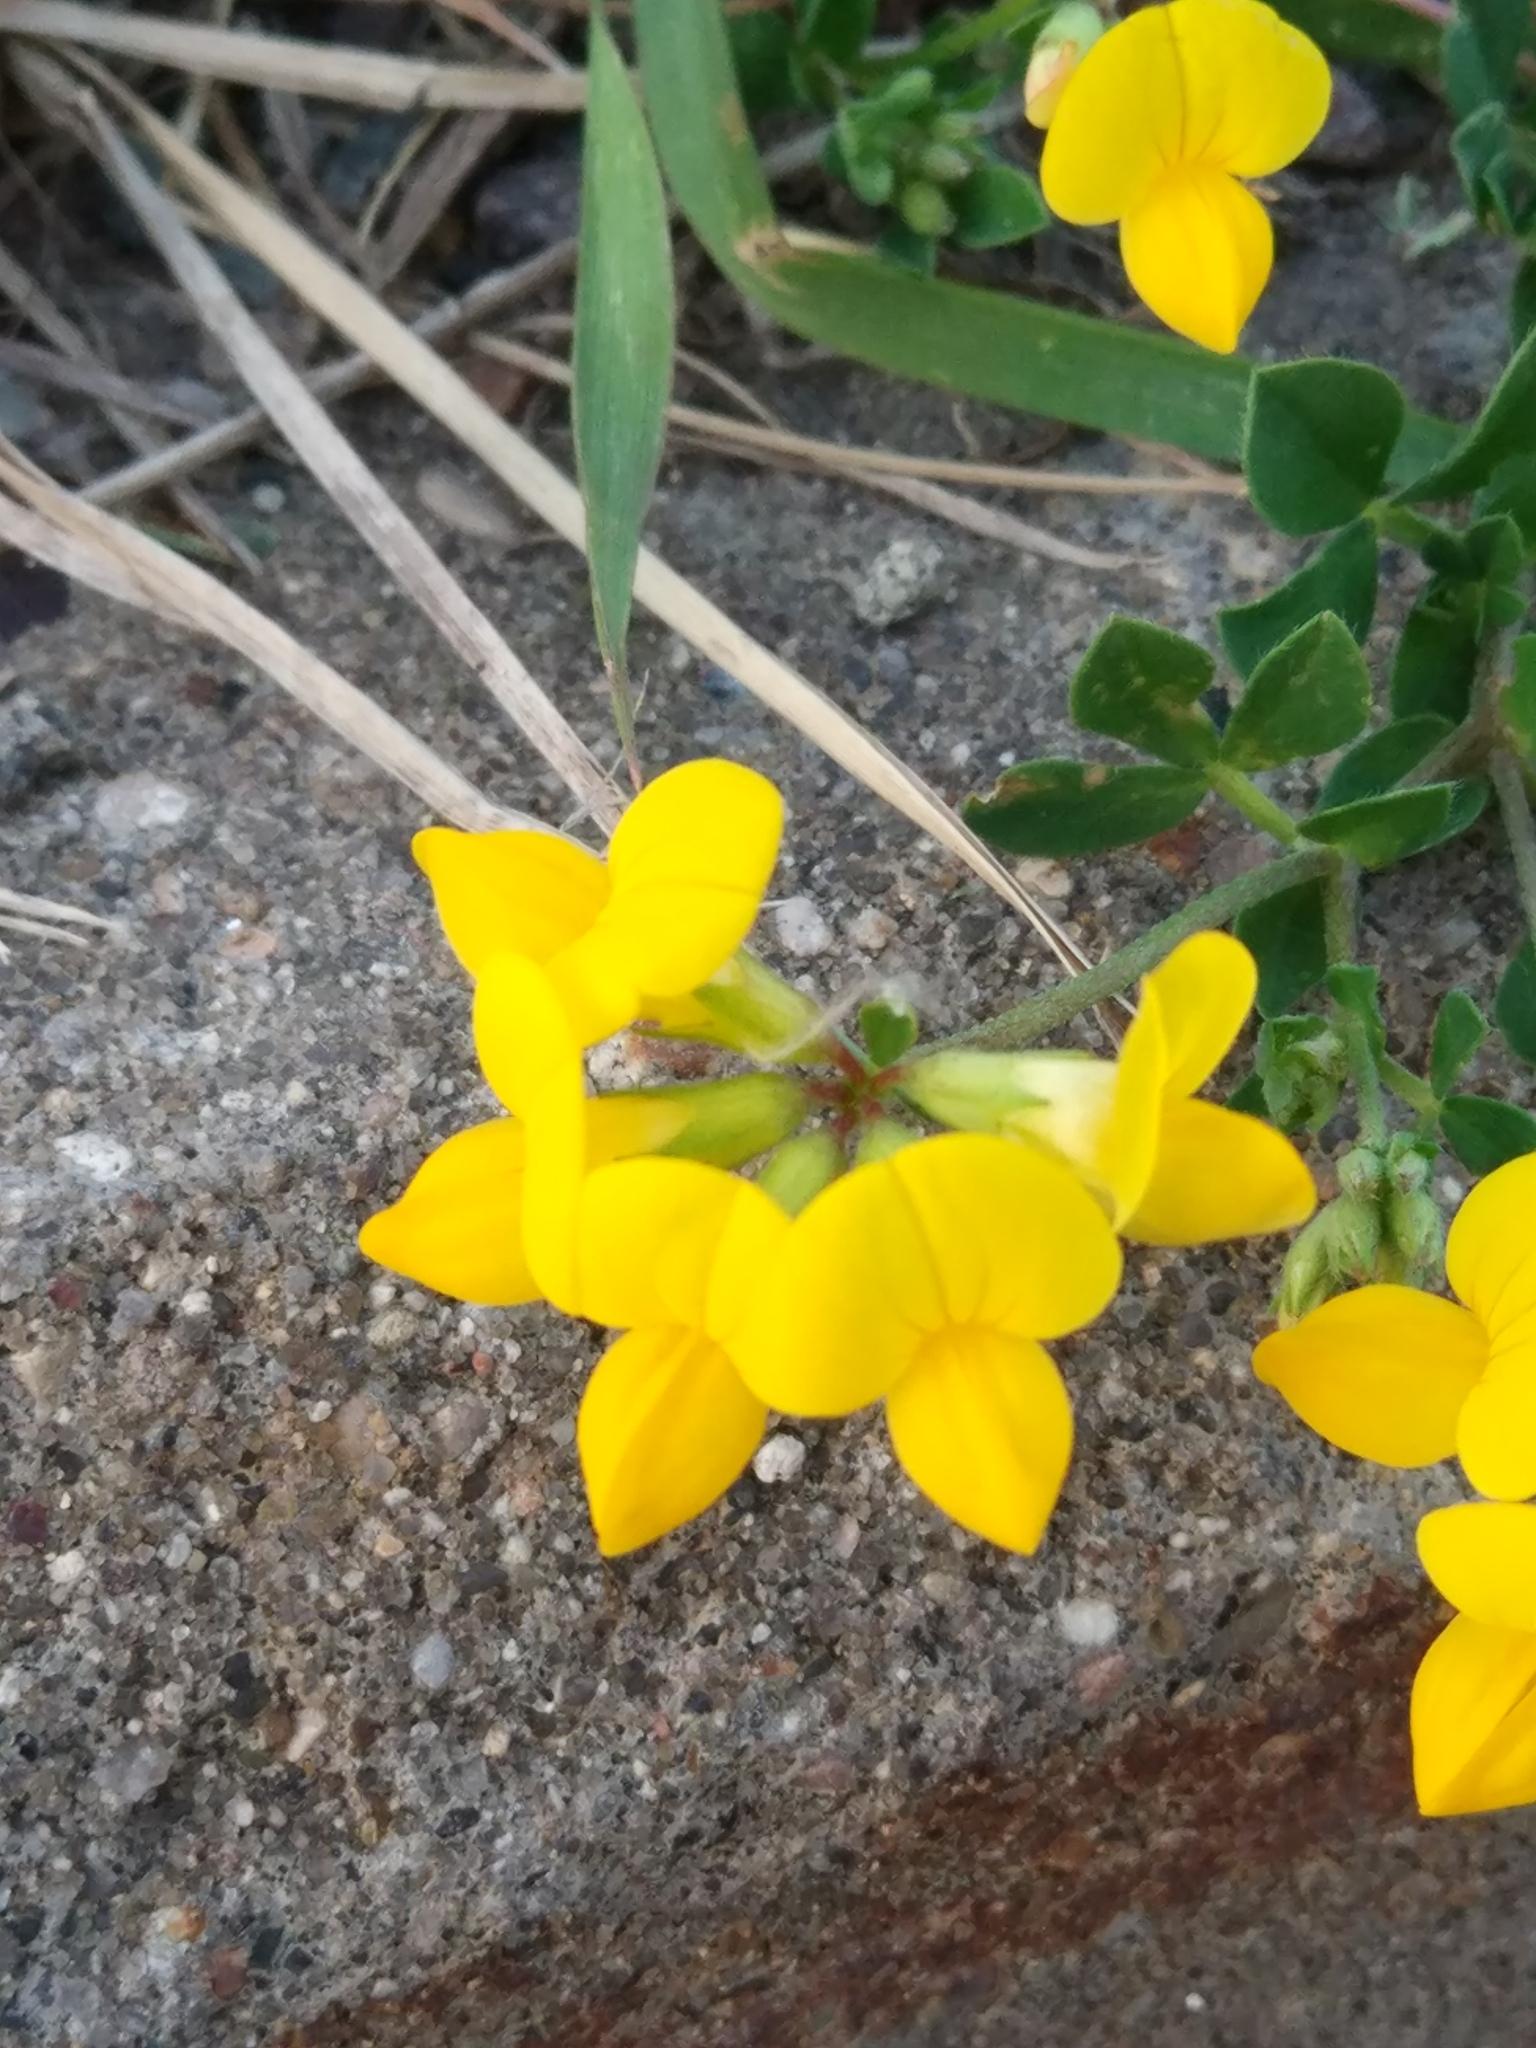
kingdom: Plantae
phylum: Tracheophyta
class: Magnoliopsida
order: Fabales
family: Fabaceae
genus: Lotus
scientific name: Lotus corniculatus
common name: Common bird's-foot-trefoil
